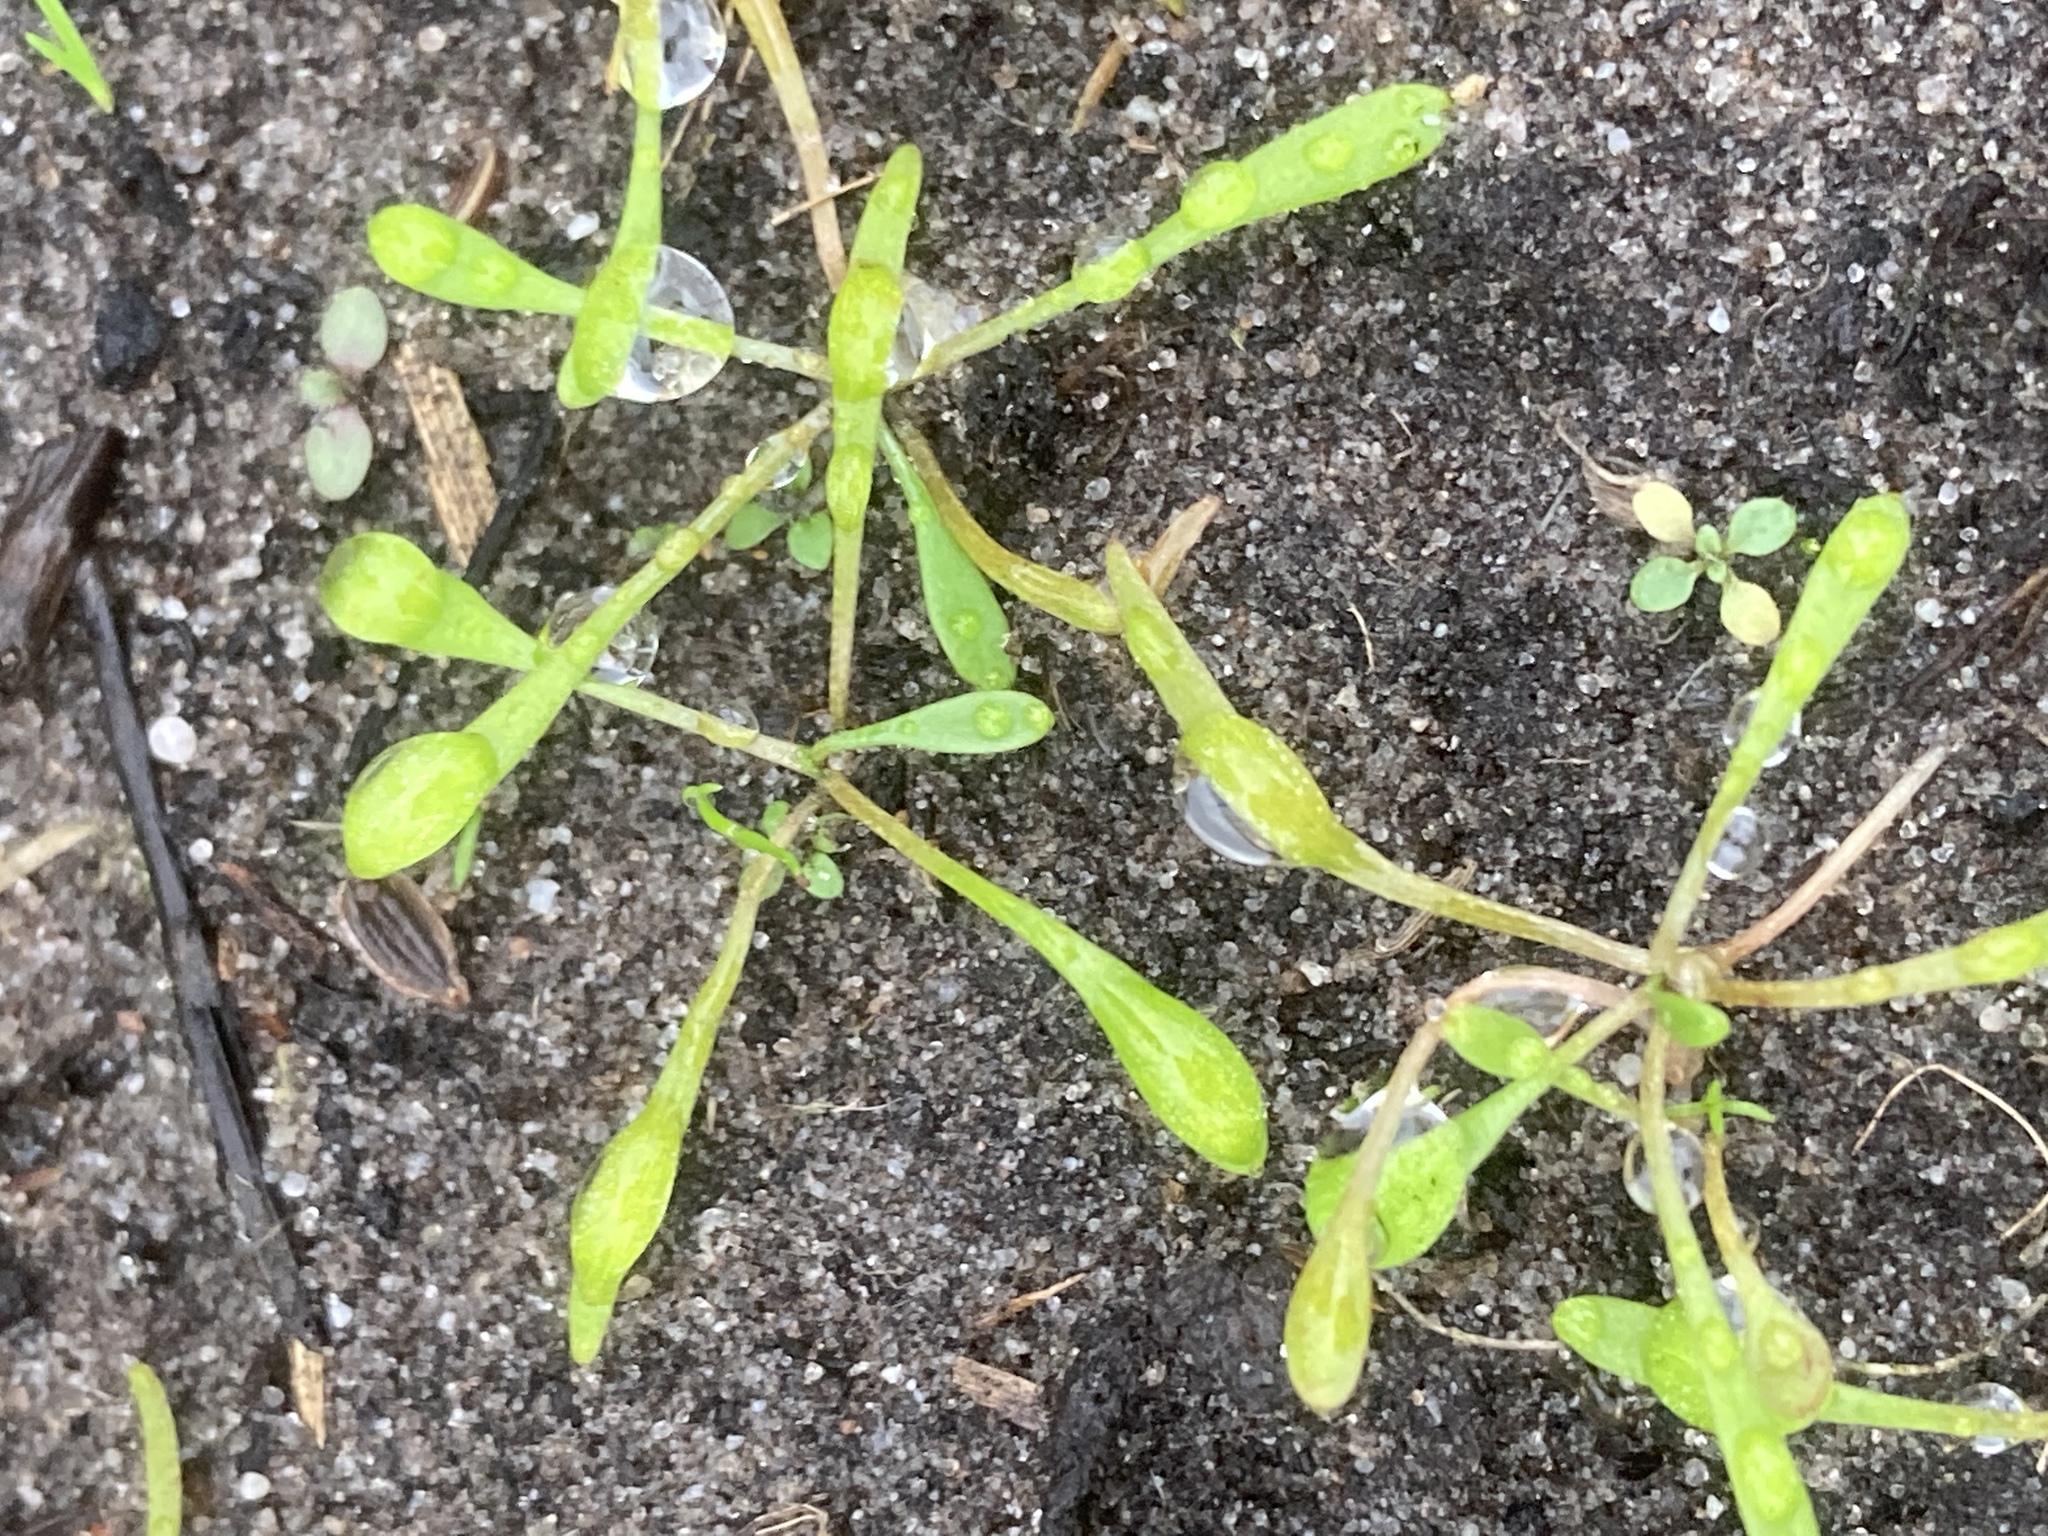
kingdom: Plantae
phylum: Tracheophyta
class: Magnoliopsida
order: Ranunculales
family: Ranunculaceae
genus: Myosurus
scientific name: Myosurus minimus
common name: Mousetail
